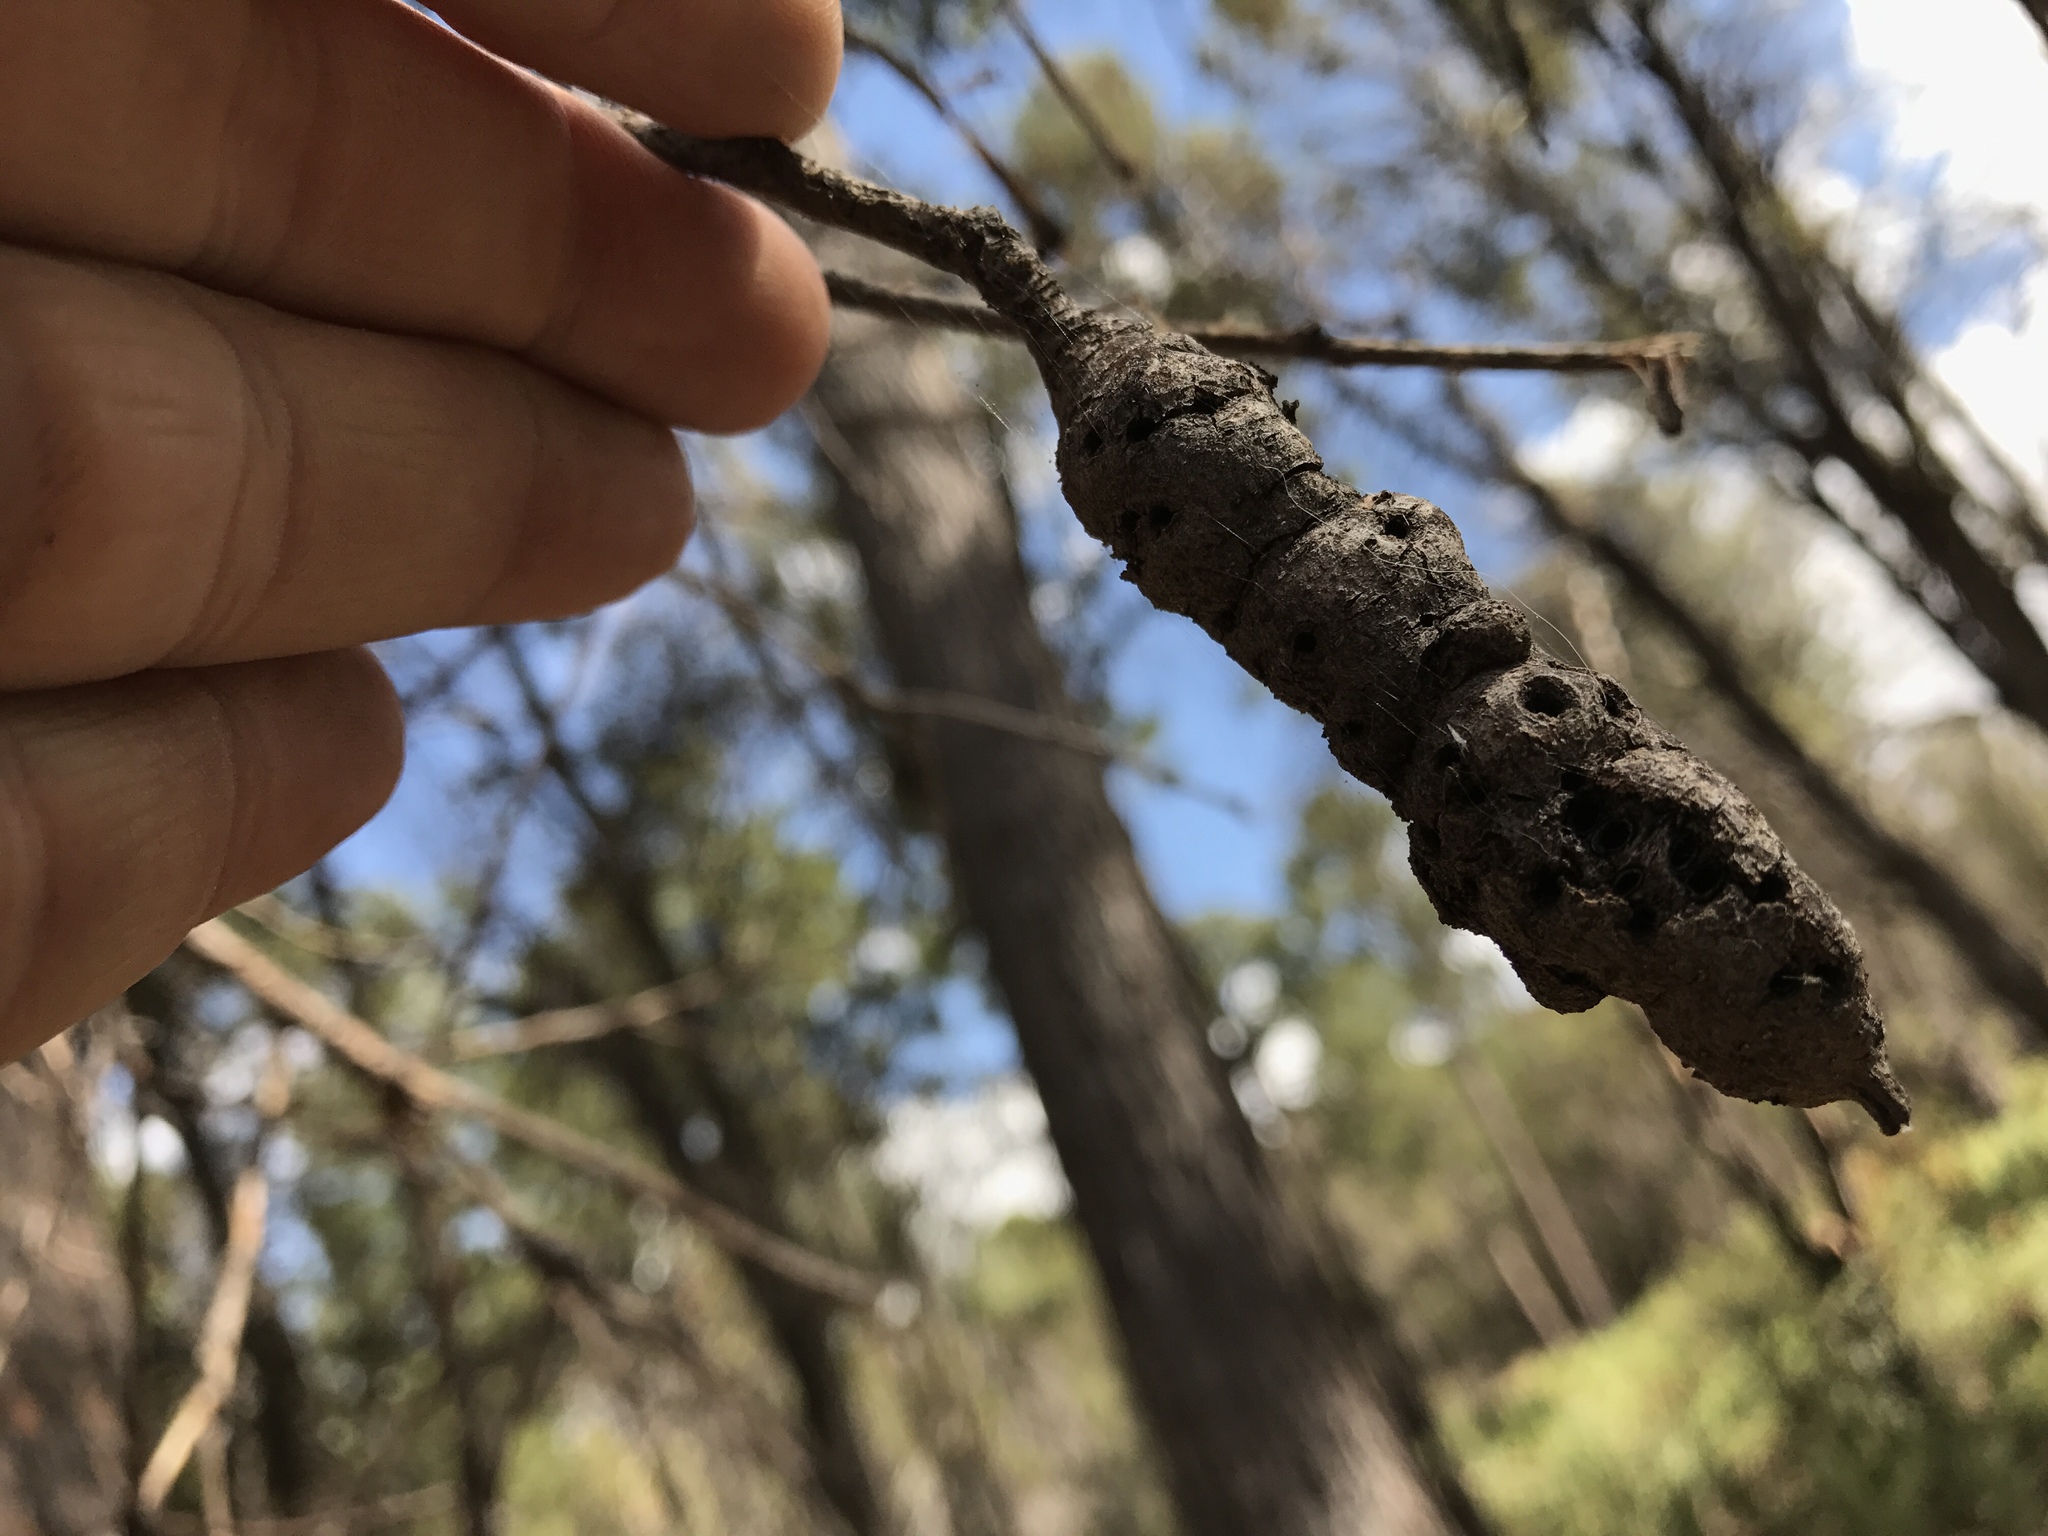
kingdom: Animalia
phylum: Arthropoda
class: Insecta
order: Hymenoptera
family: Cynipidae
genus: Kokkocynips
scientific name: Kokkocynips coxii
